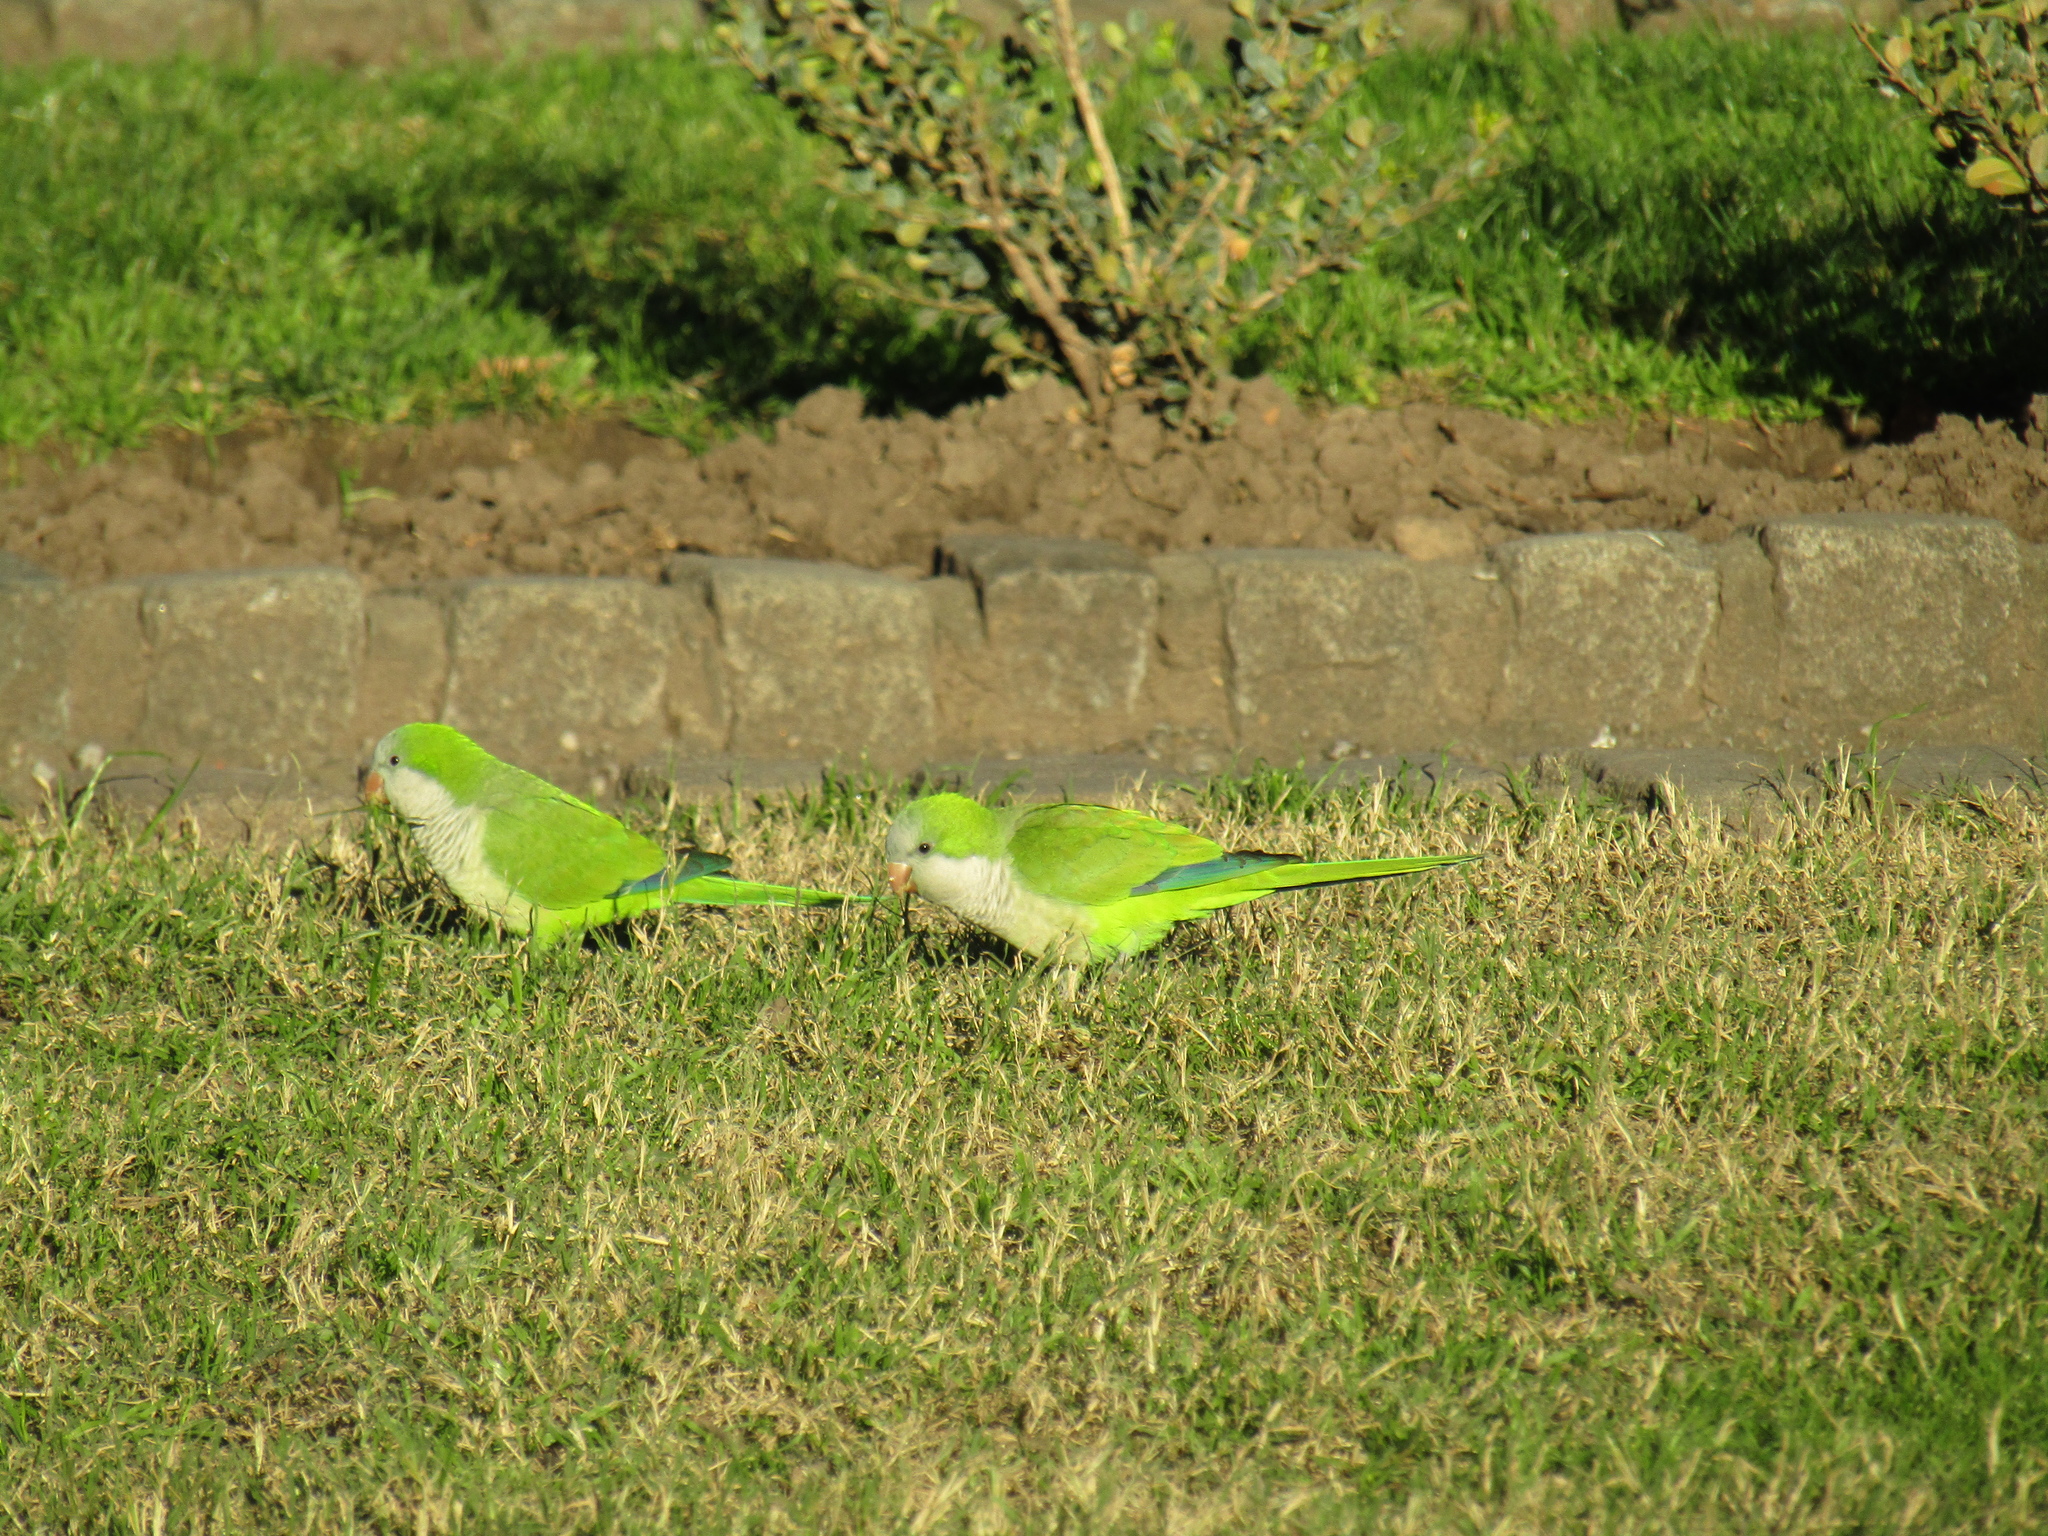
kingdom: Animalia
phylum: Chordata
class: Aves
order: Psittaciformes
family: Psittacidae
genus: Myiopsitta
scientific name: Myiopsitta monachus
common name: Monk parakeet
